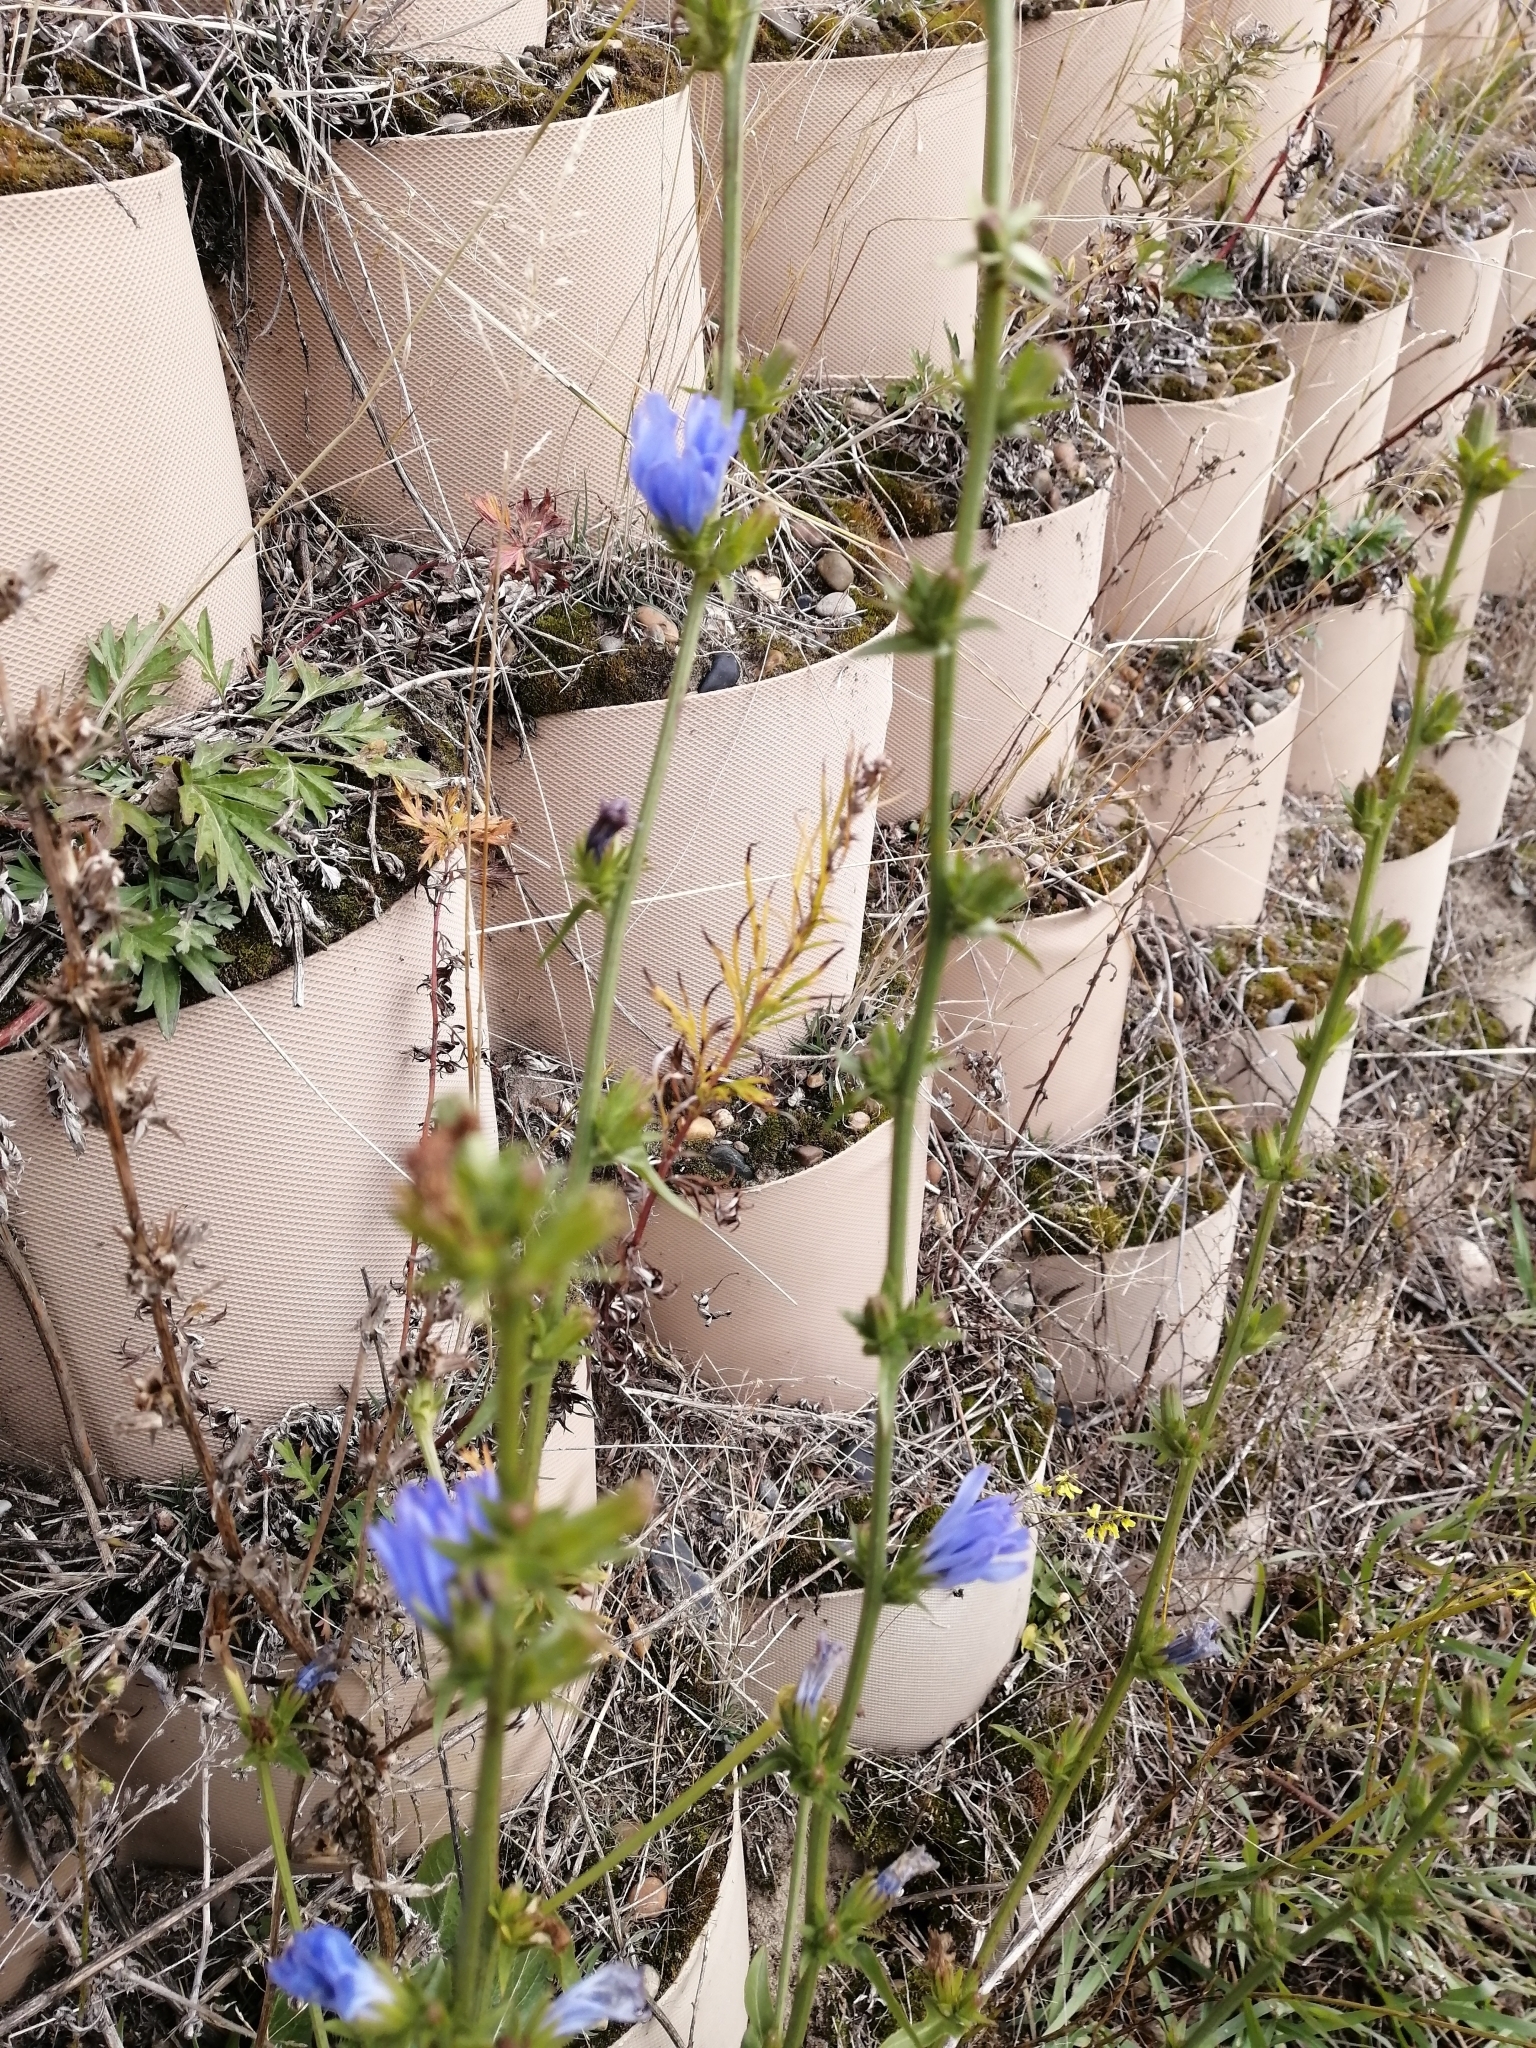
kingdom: Plantae
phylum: Tracheophyta
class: Magnoliopsida
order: Asterales
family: Asteraceae
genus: Cichorium
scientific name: Cichorium intybus
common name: Chicory
